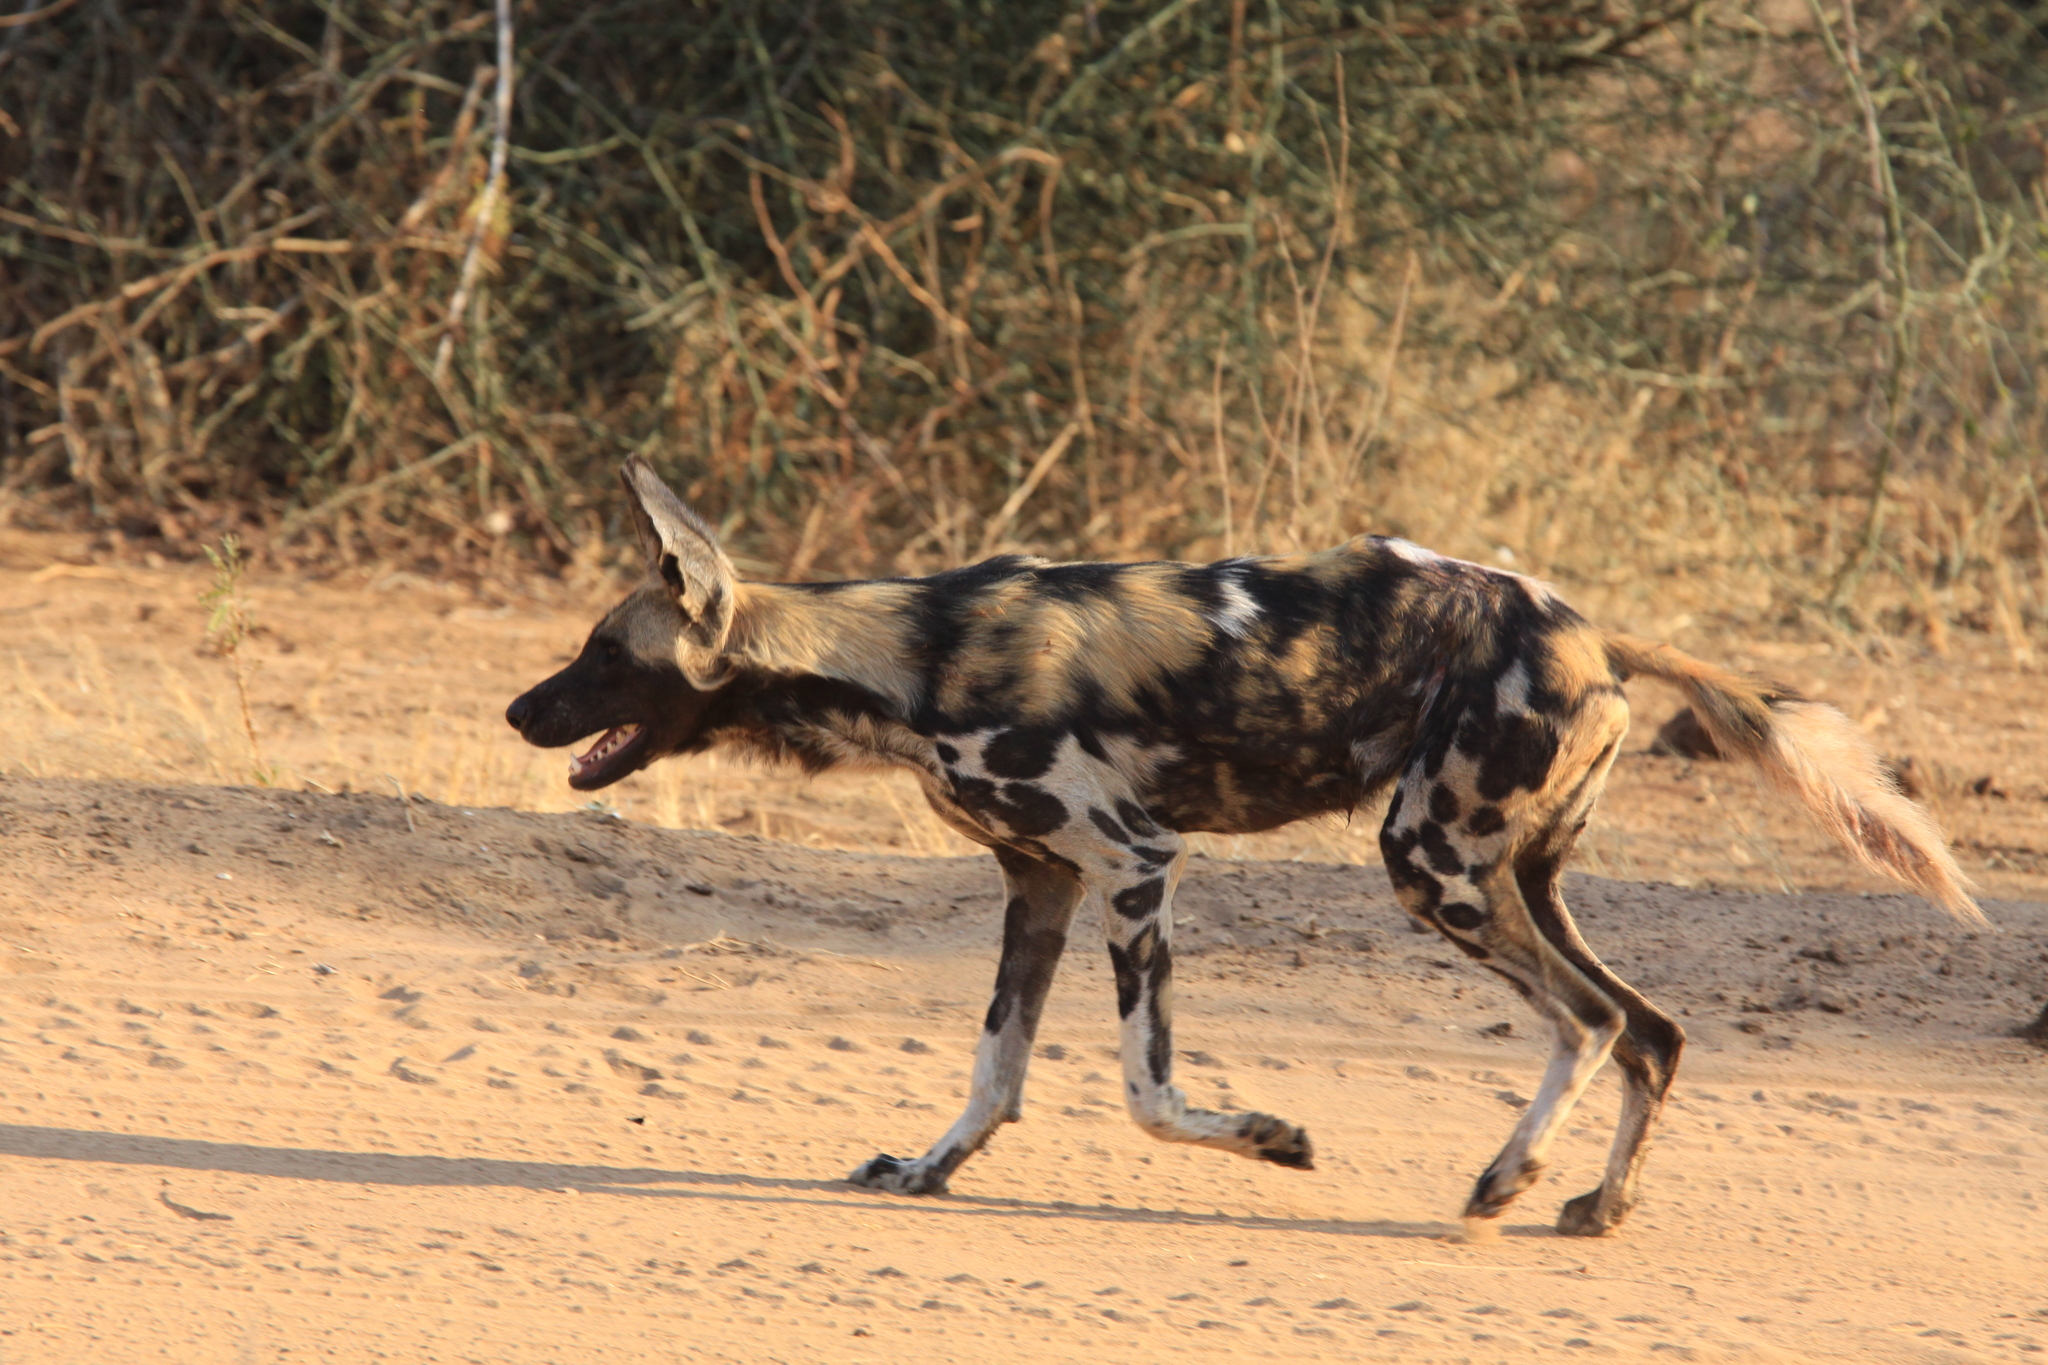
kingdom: Animalia
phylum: Chordata
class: Mammalia
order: Carnivora
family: Canidae
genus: Lycaon
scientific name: Lycaon pictus
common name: African wild dog
